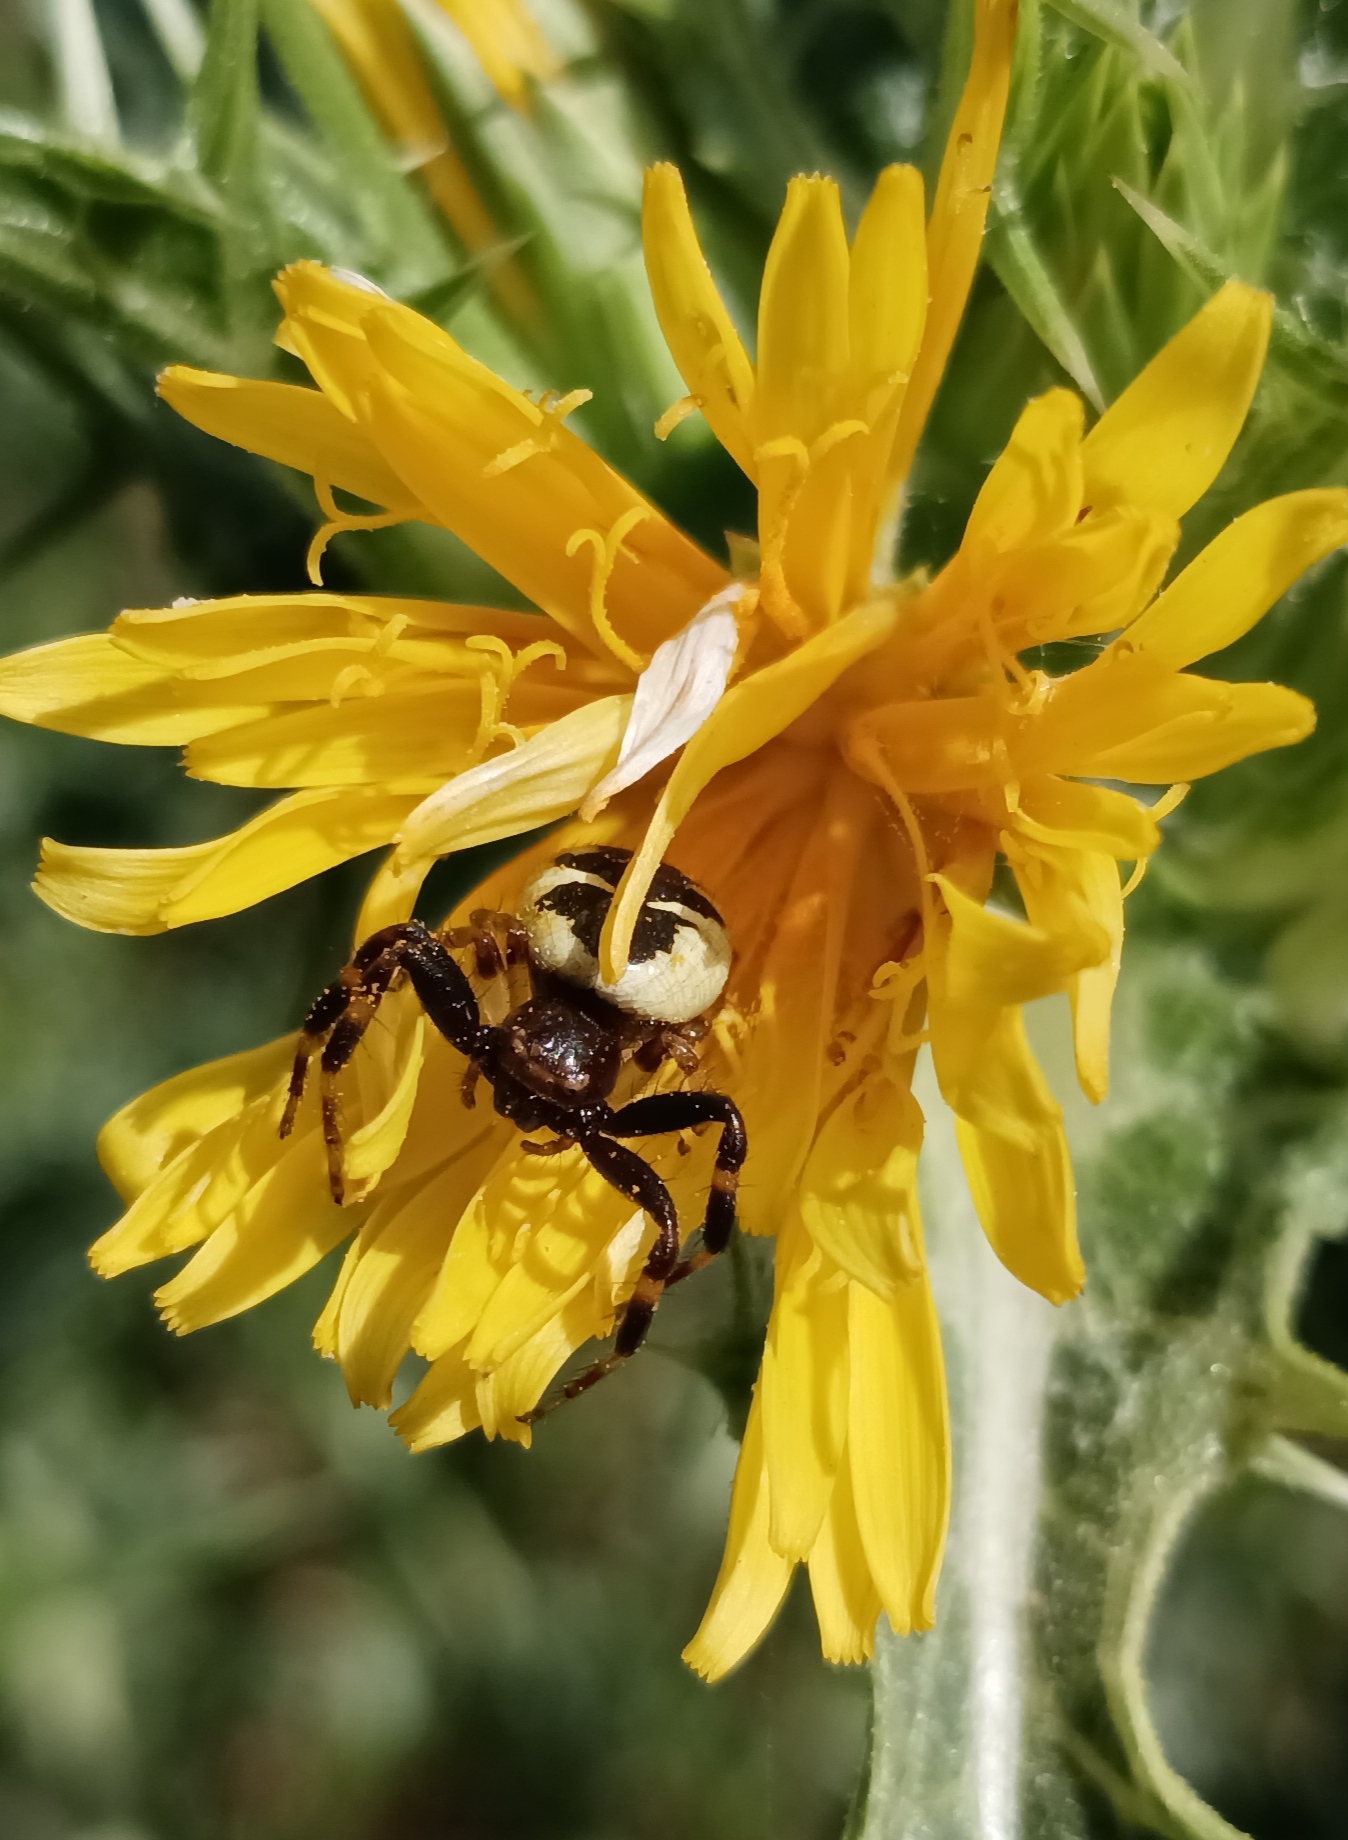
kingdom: Animalia
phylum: Arthropoda
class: Arachnida
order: Araneae
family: Thomisidae
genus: Synema
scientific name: Synema globosum
